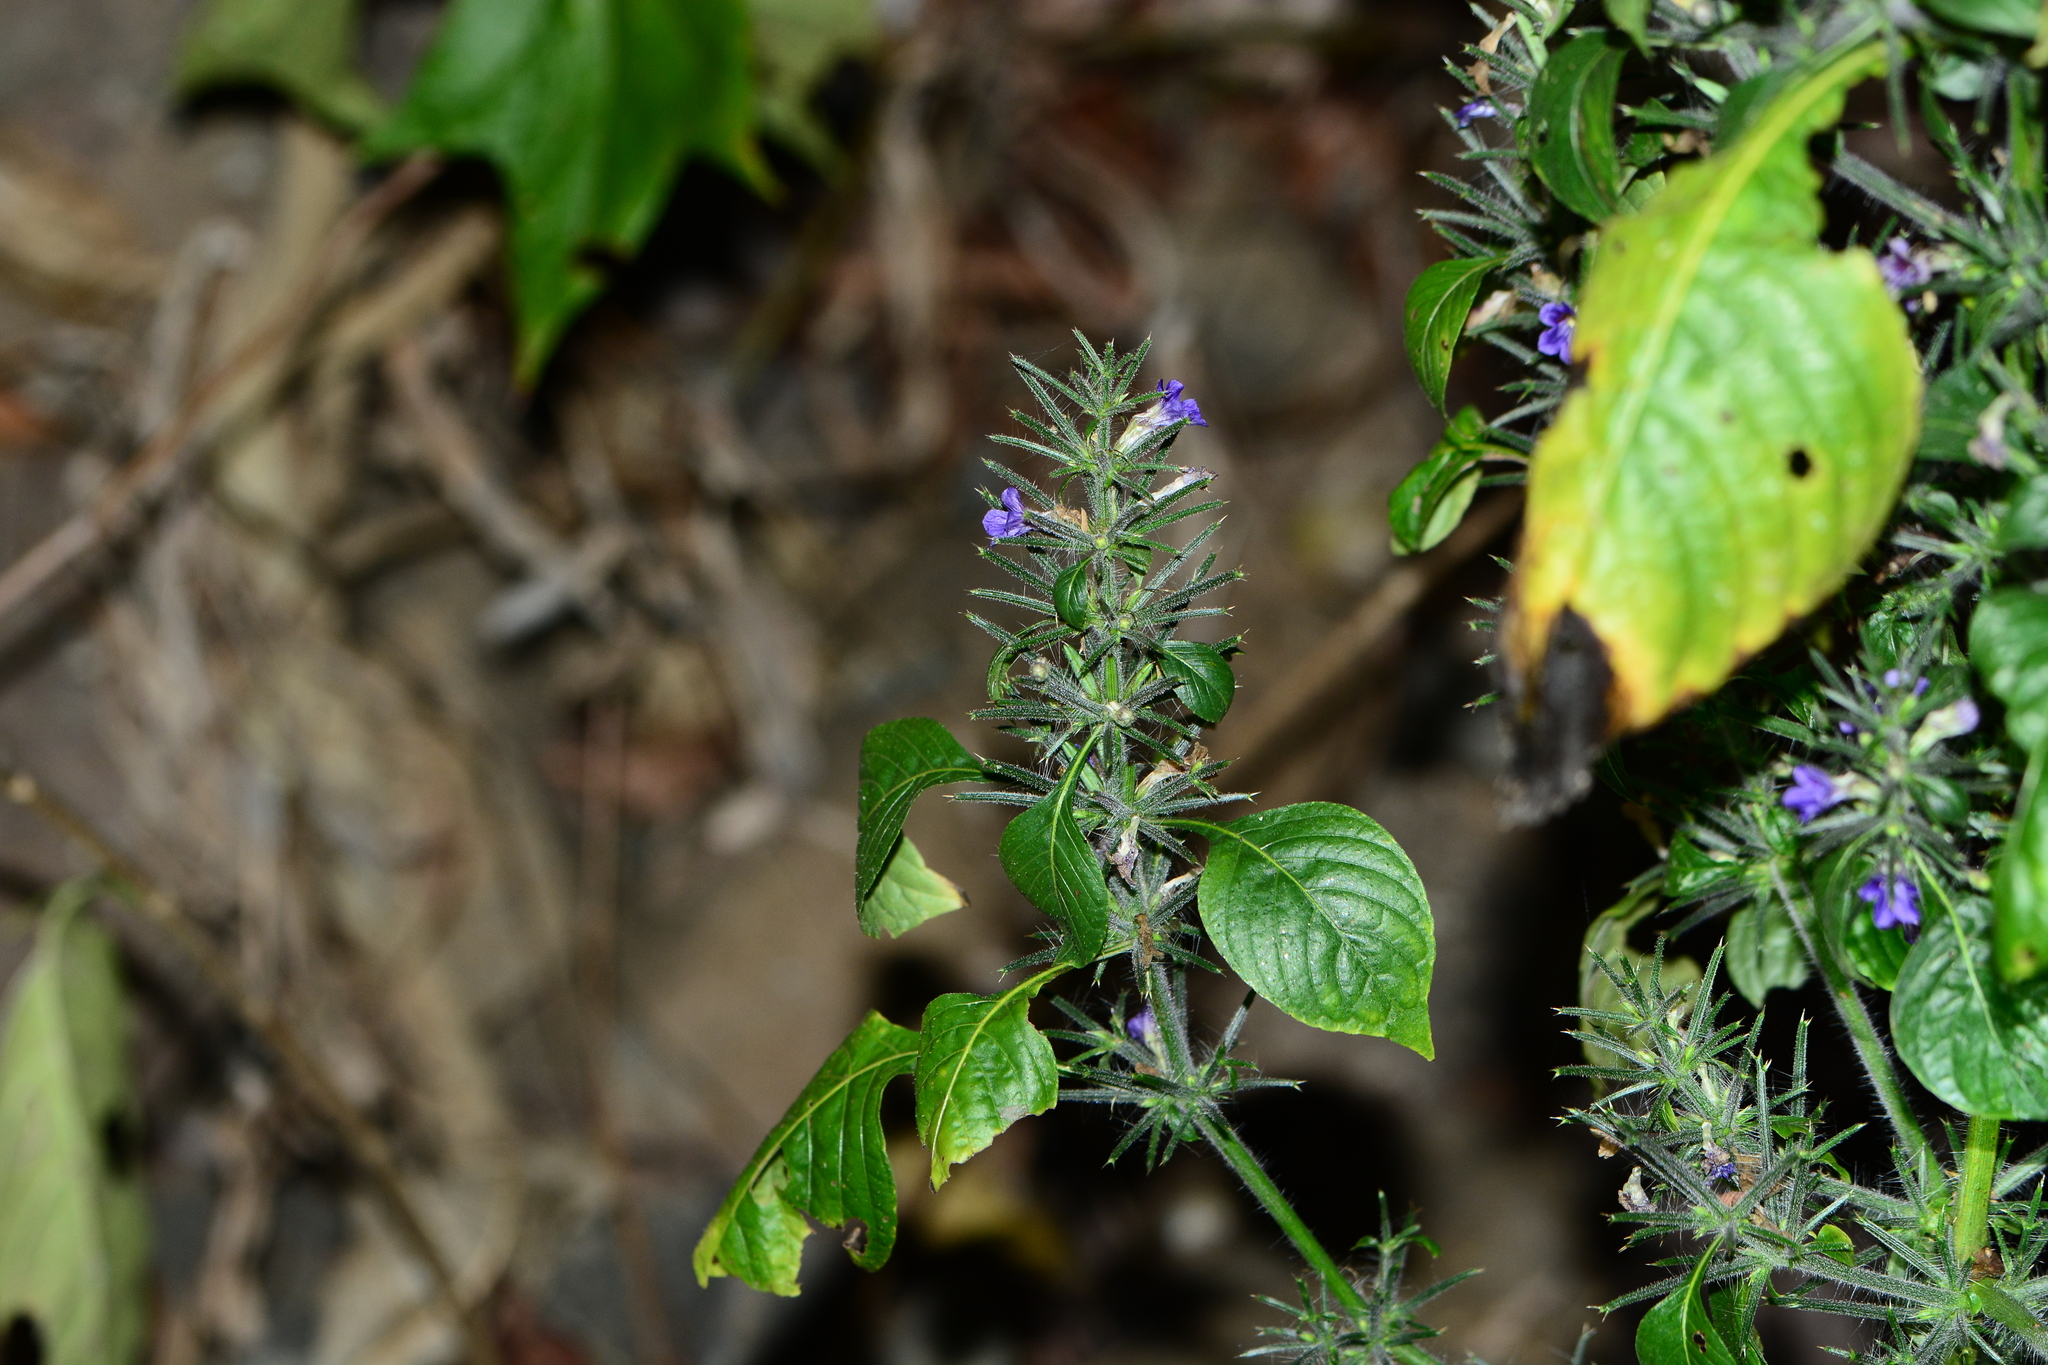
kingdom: Plantae
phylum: Tracheophyta
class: Magnoliopsida
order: Lamiales
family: Acanthaceae
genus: Haplanthodes
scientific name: Haplanthodes verticillatus
